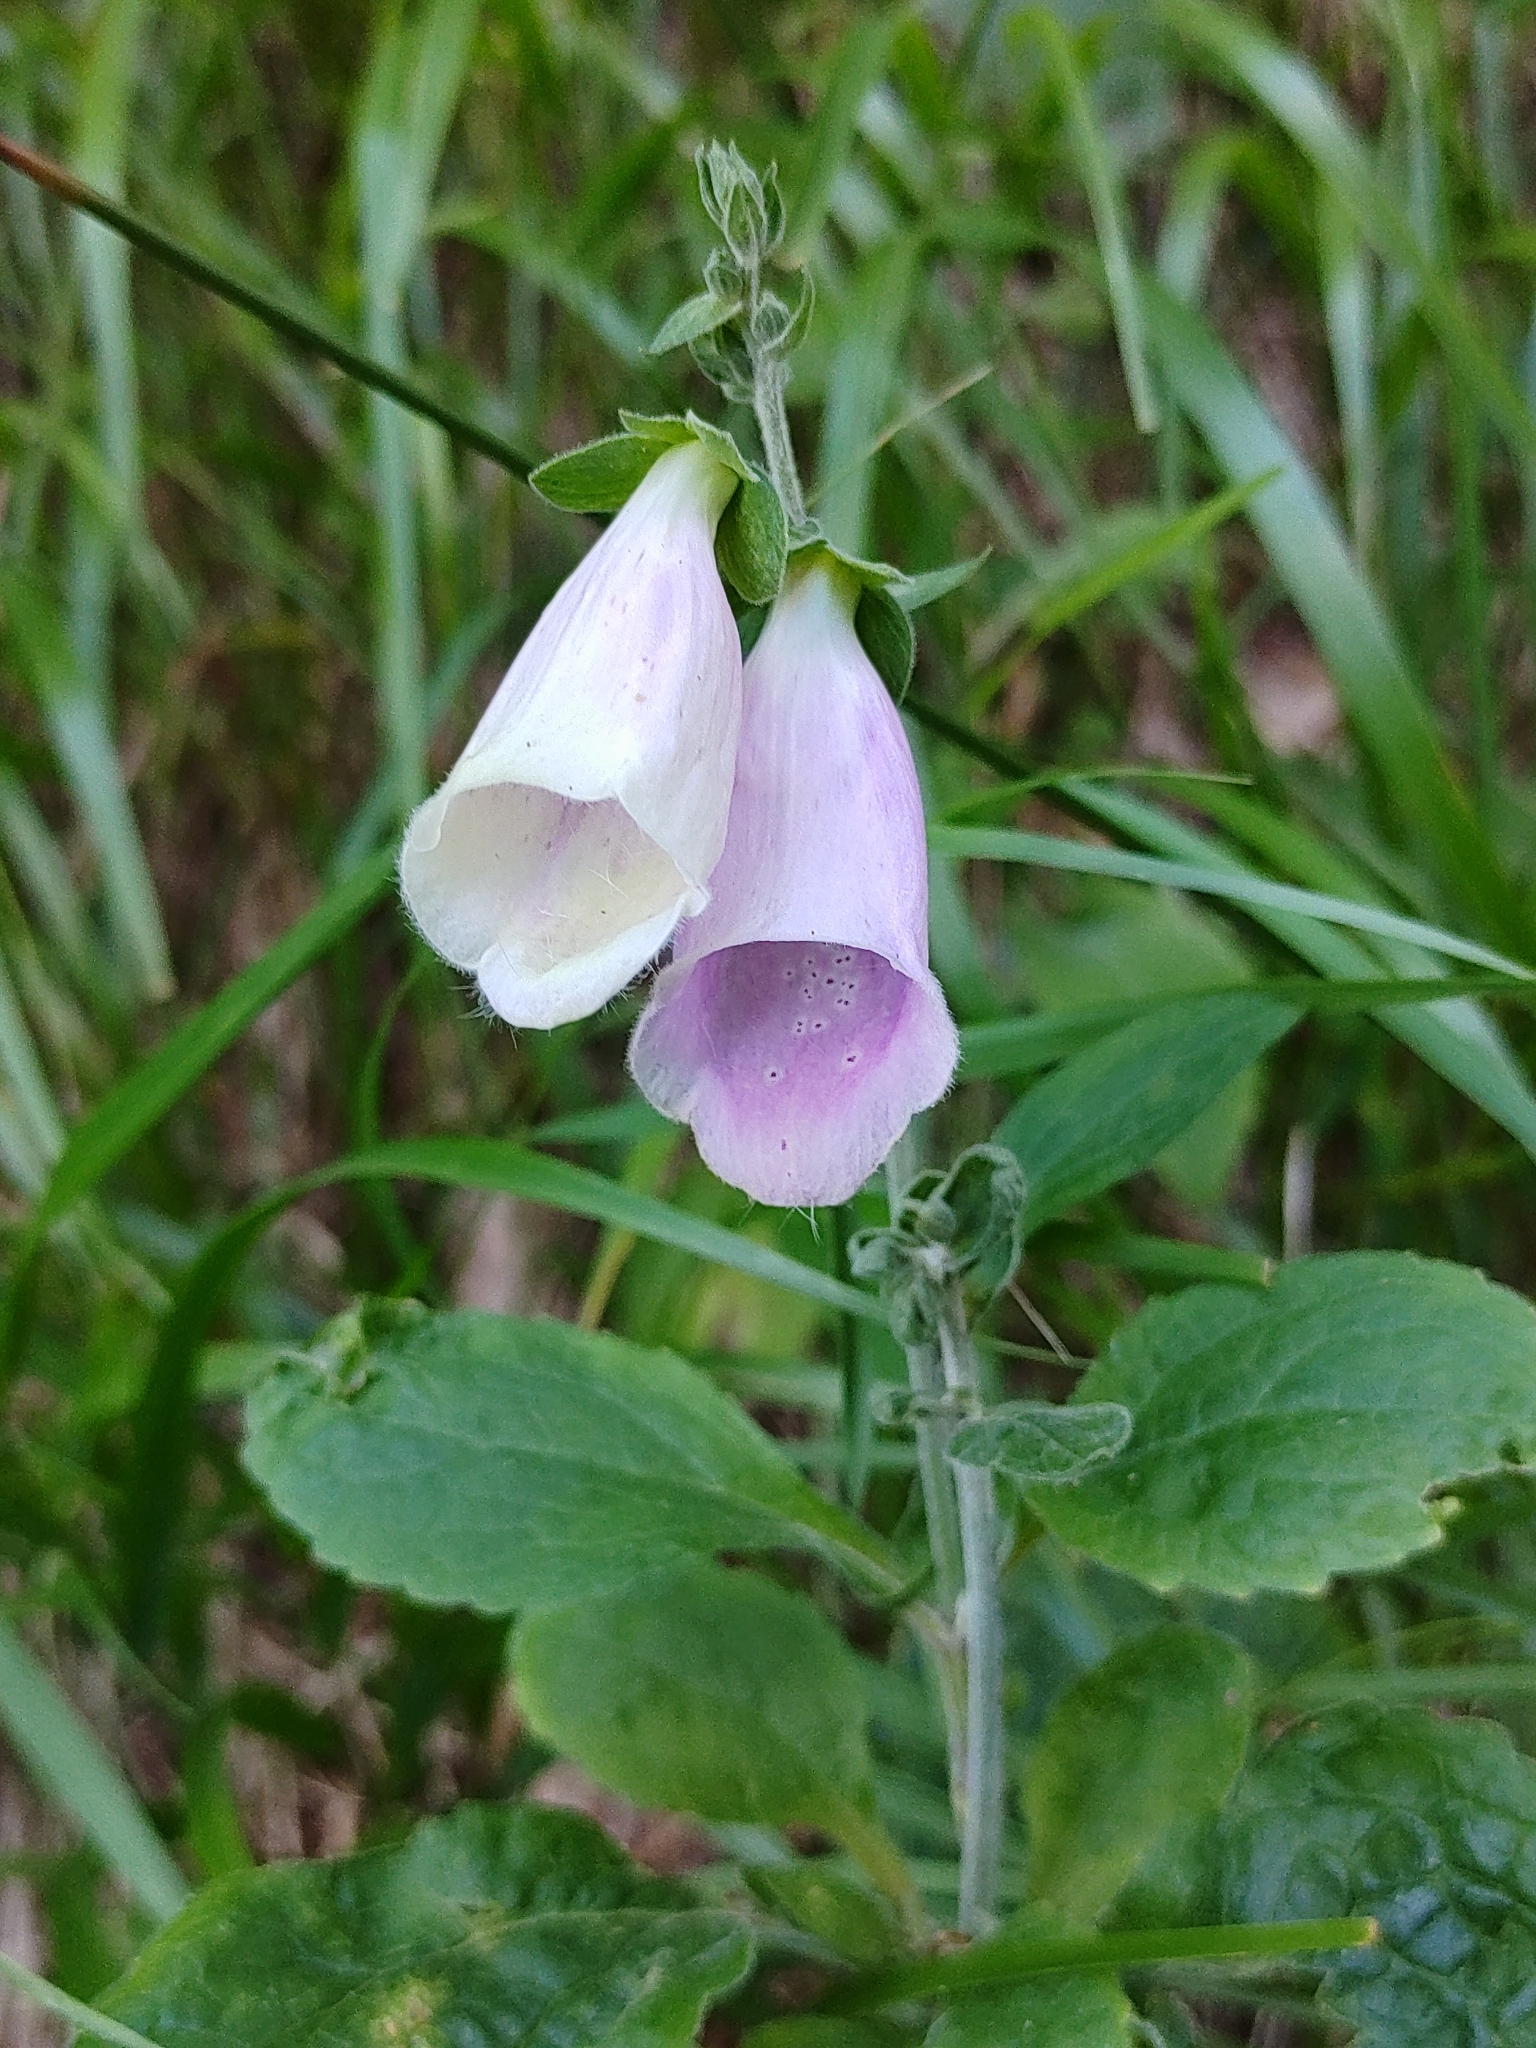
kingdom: Plantae
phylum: Tracheophyta
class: Magnoliopsida
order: Lamiales
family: Plantaginaceae
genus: Digitalis
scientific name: Digitalis purpurea
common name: Foxglove
